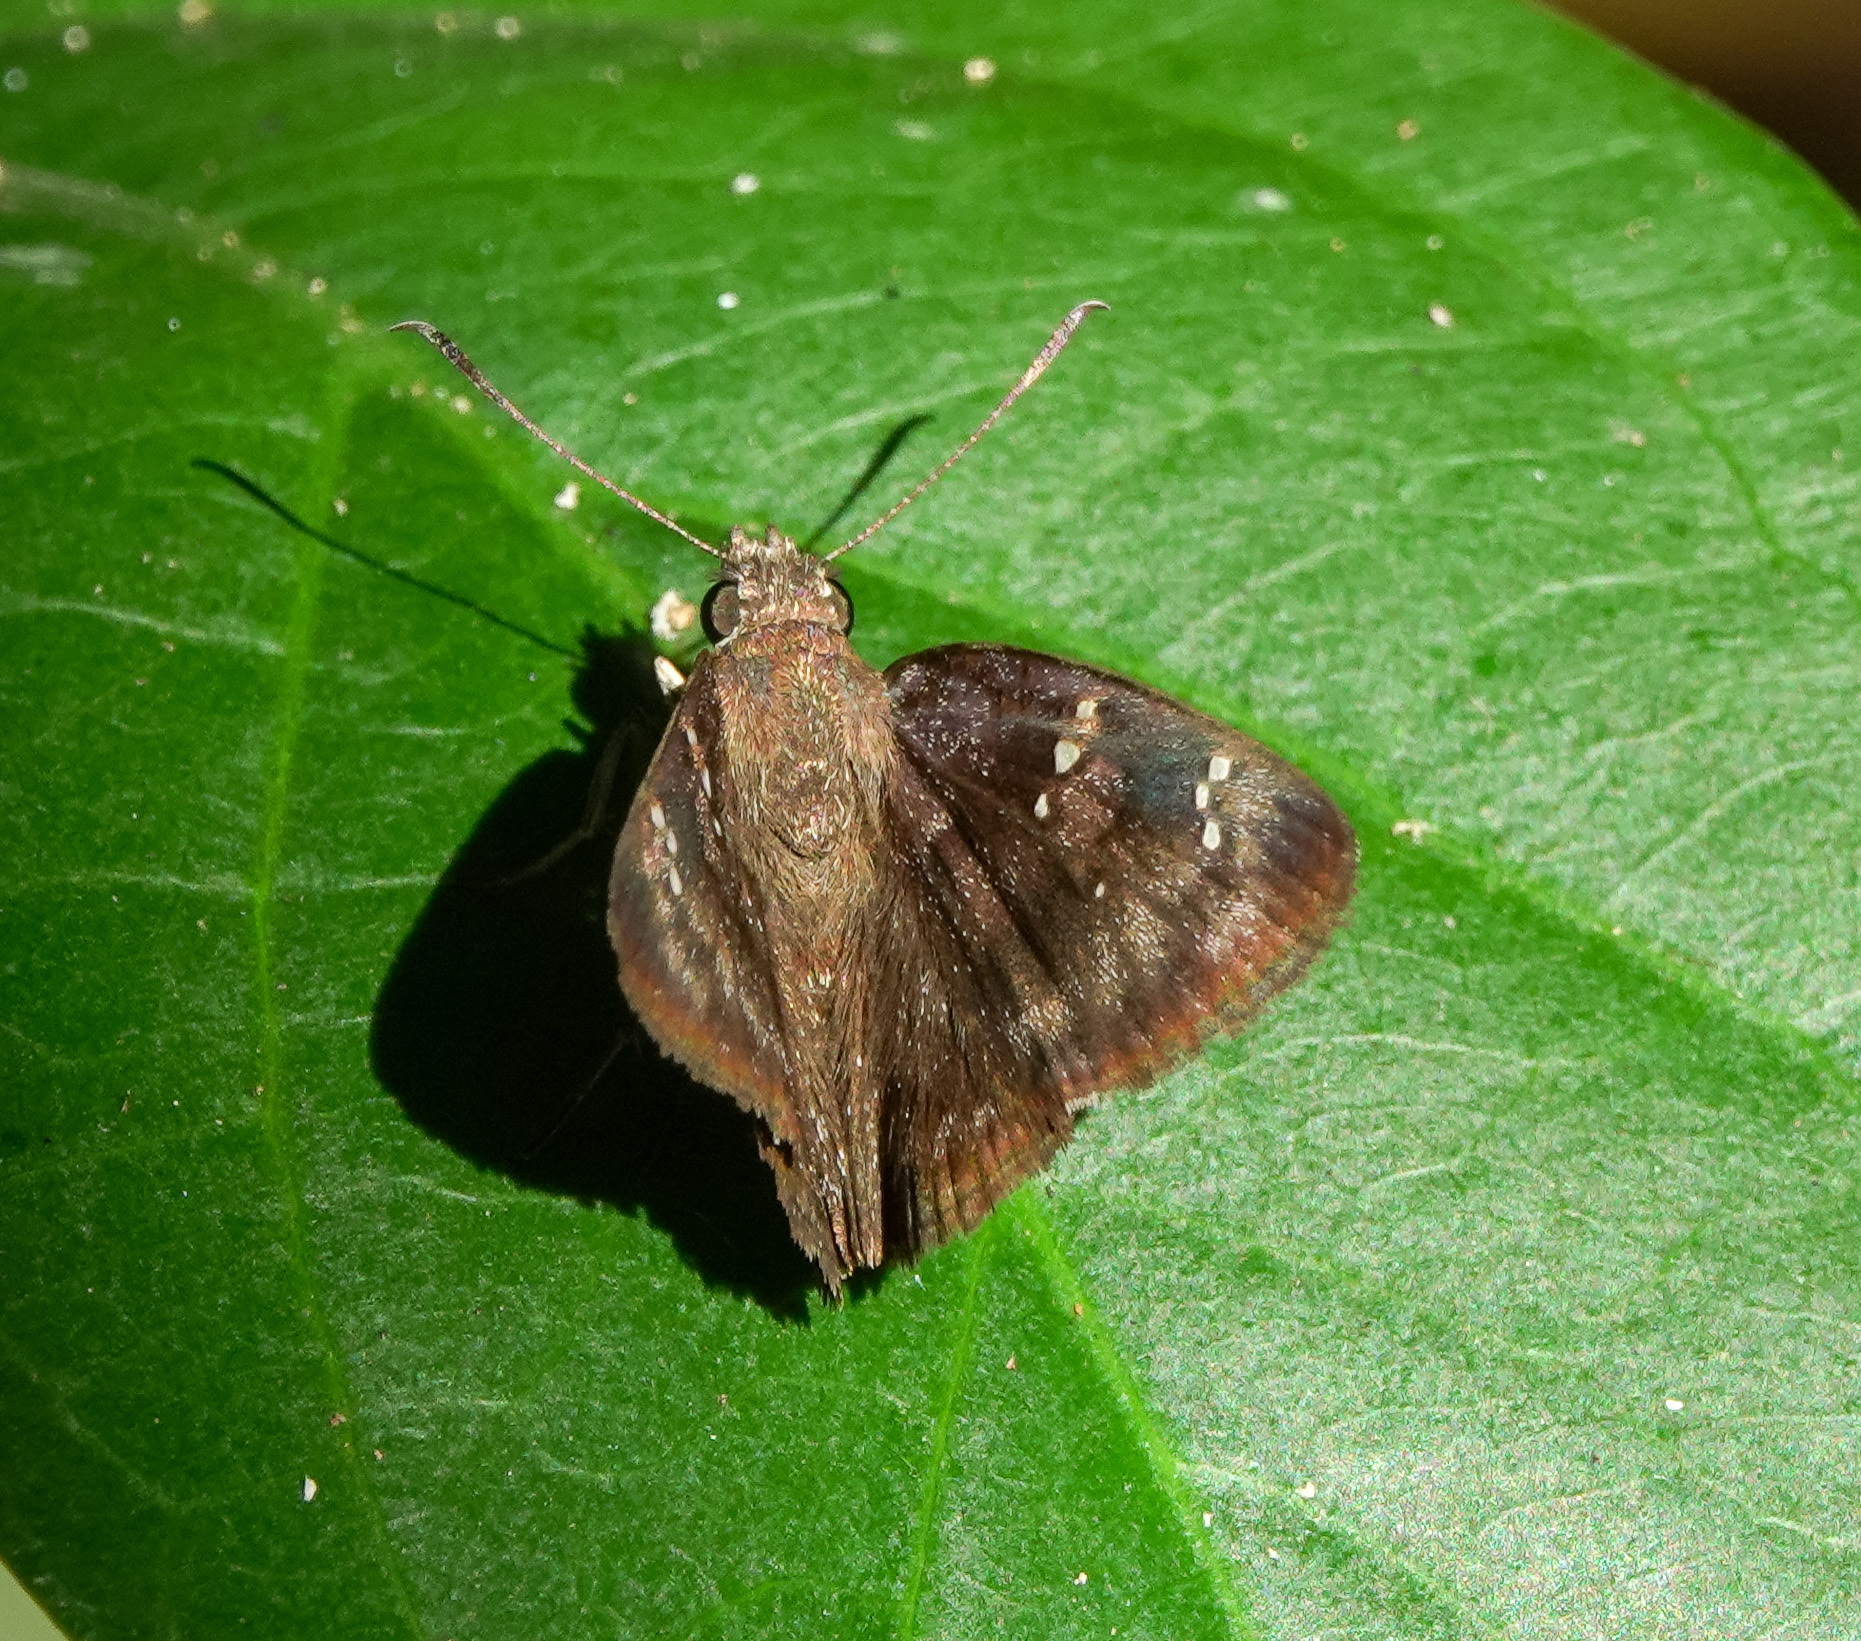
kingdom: Animalia
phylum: Arthropoda
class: Insecta
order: Lepidoptera
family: Hesperiidae
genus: Sarangesa
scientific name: Sarangesa dasahara
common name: Common small flat
